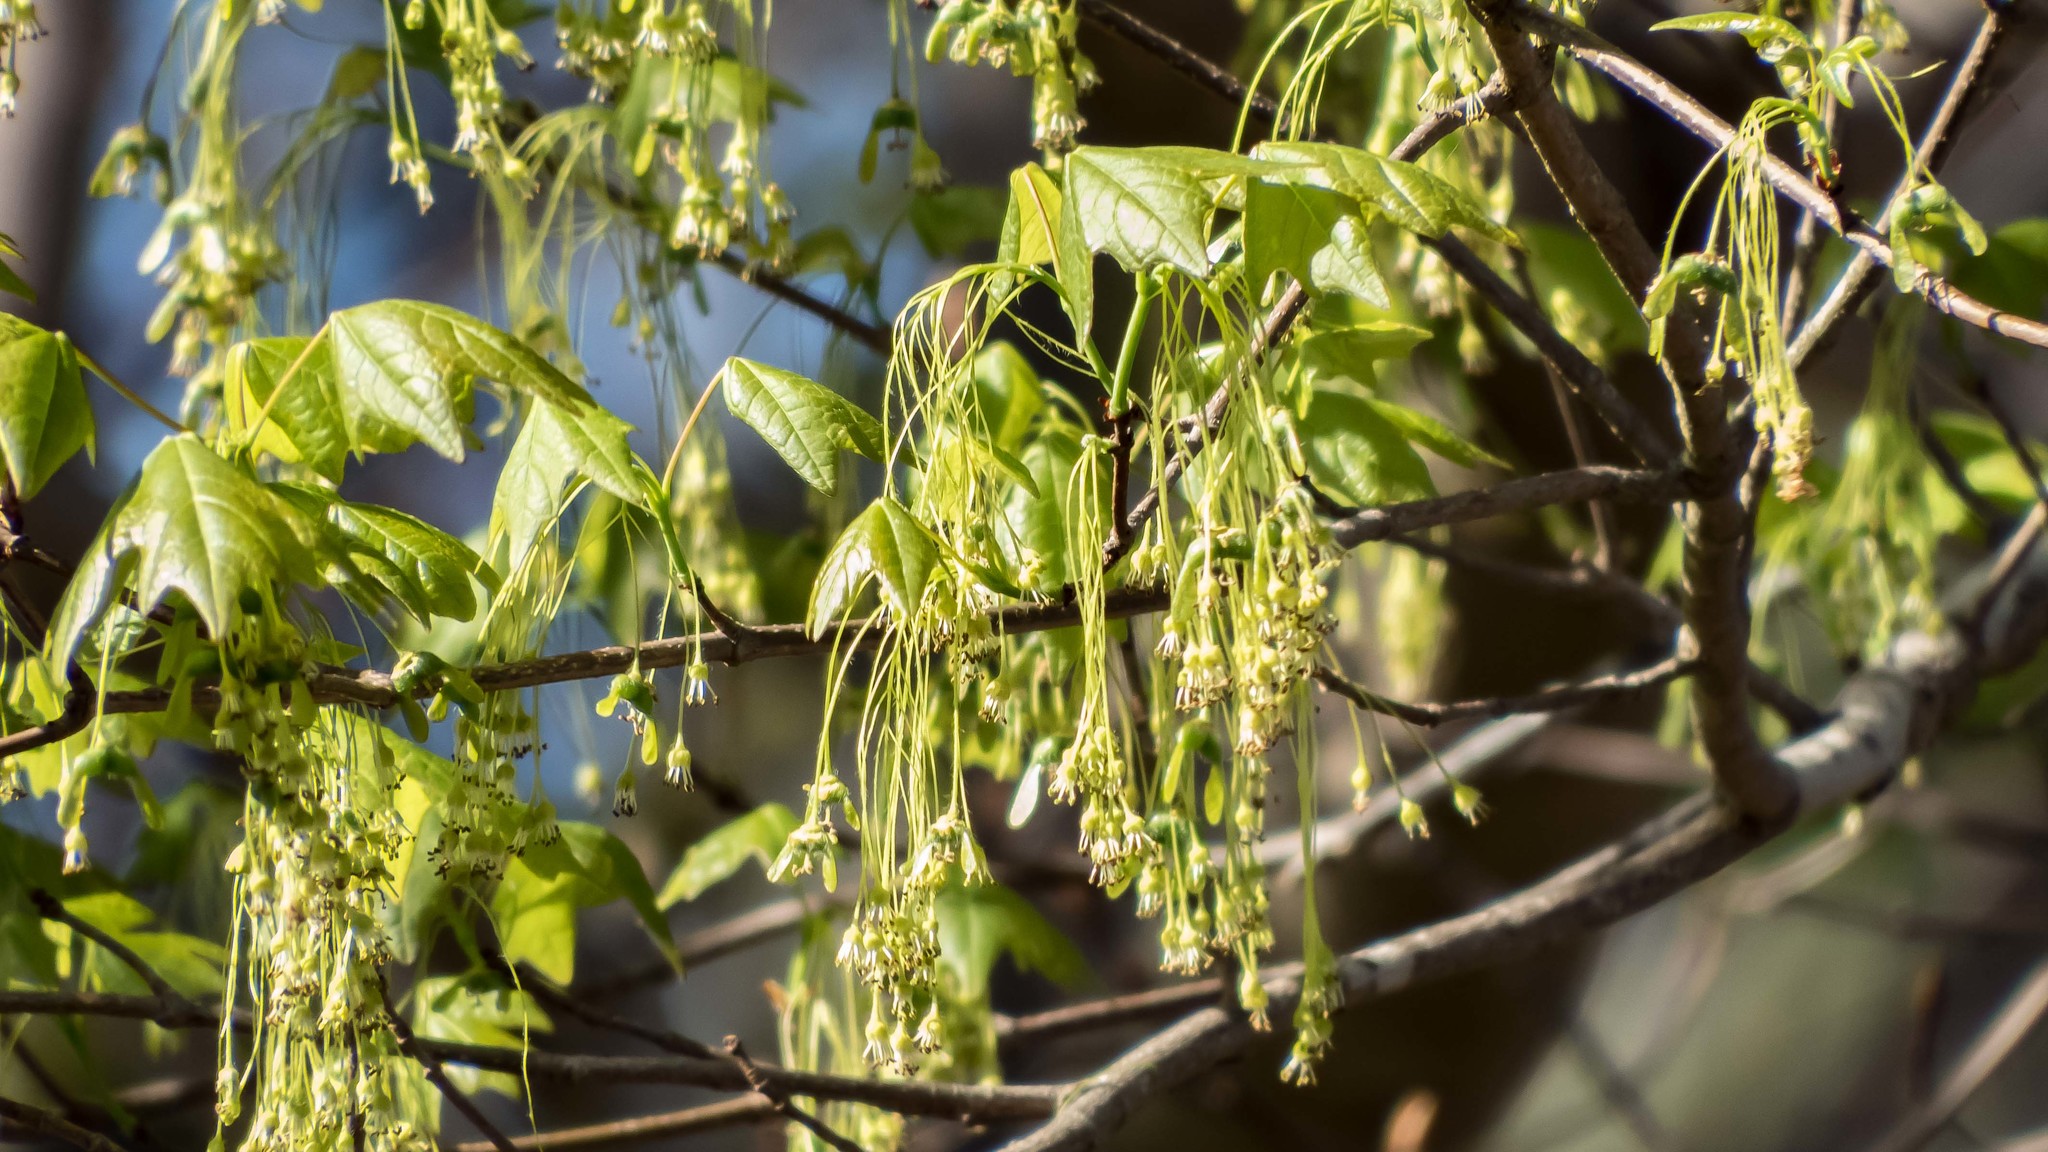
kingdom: Plantae
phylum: Tracheophyta
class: Magnoliopsida
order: Sapindales
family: Sapindaceae
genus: Acer
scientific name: Acer saccharum
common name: Sugar maple
